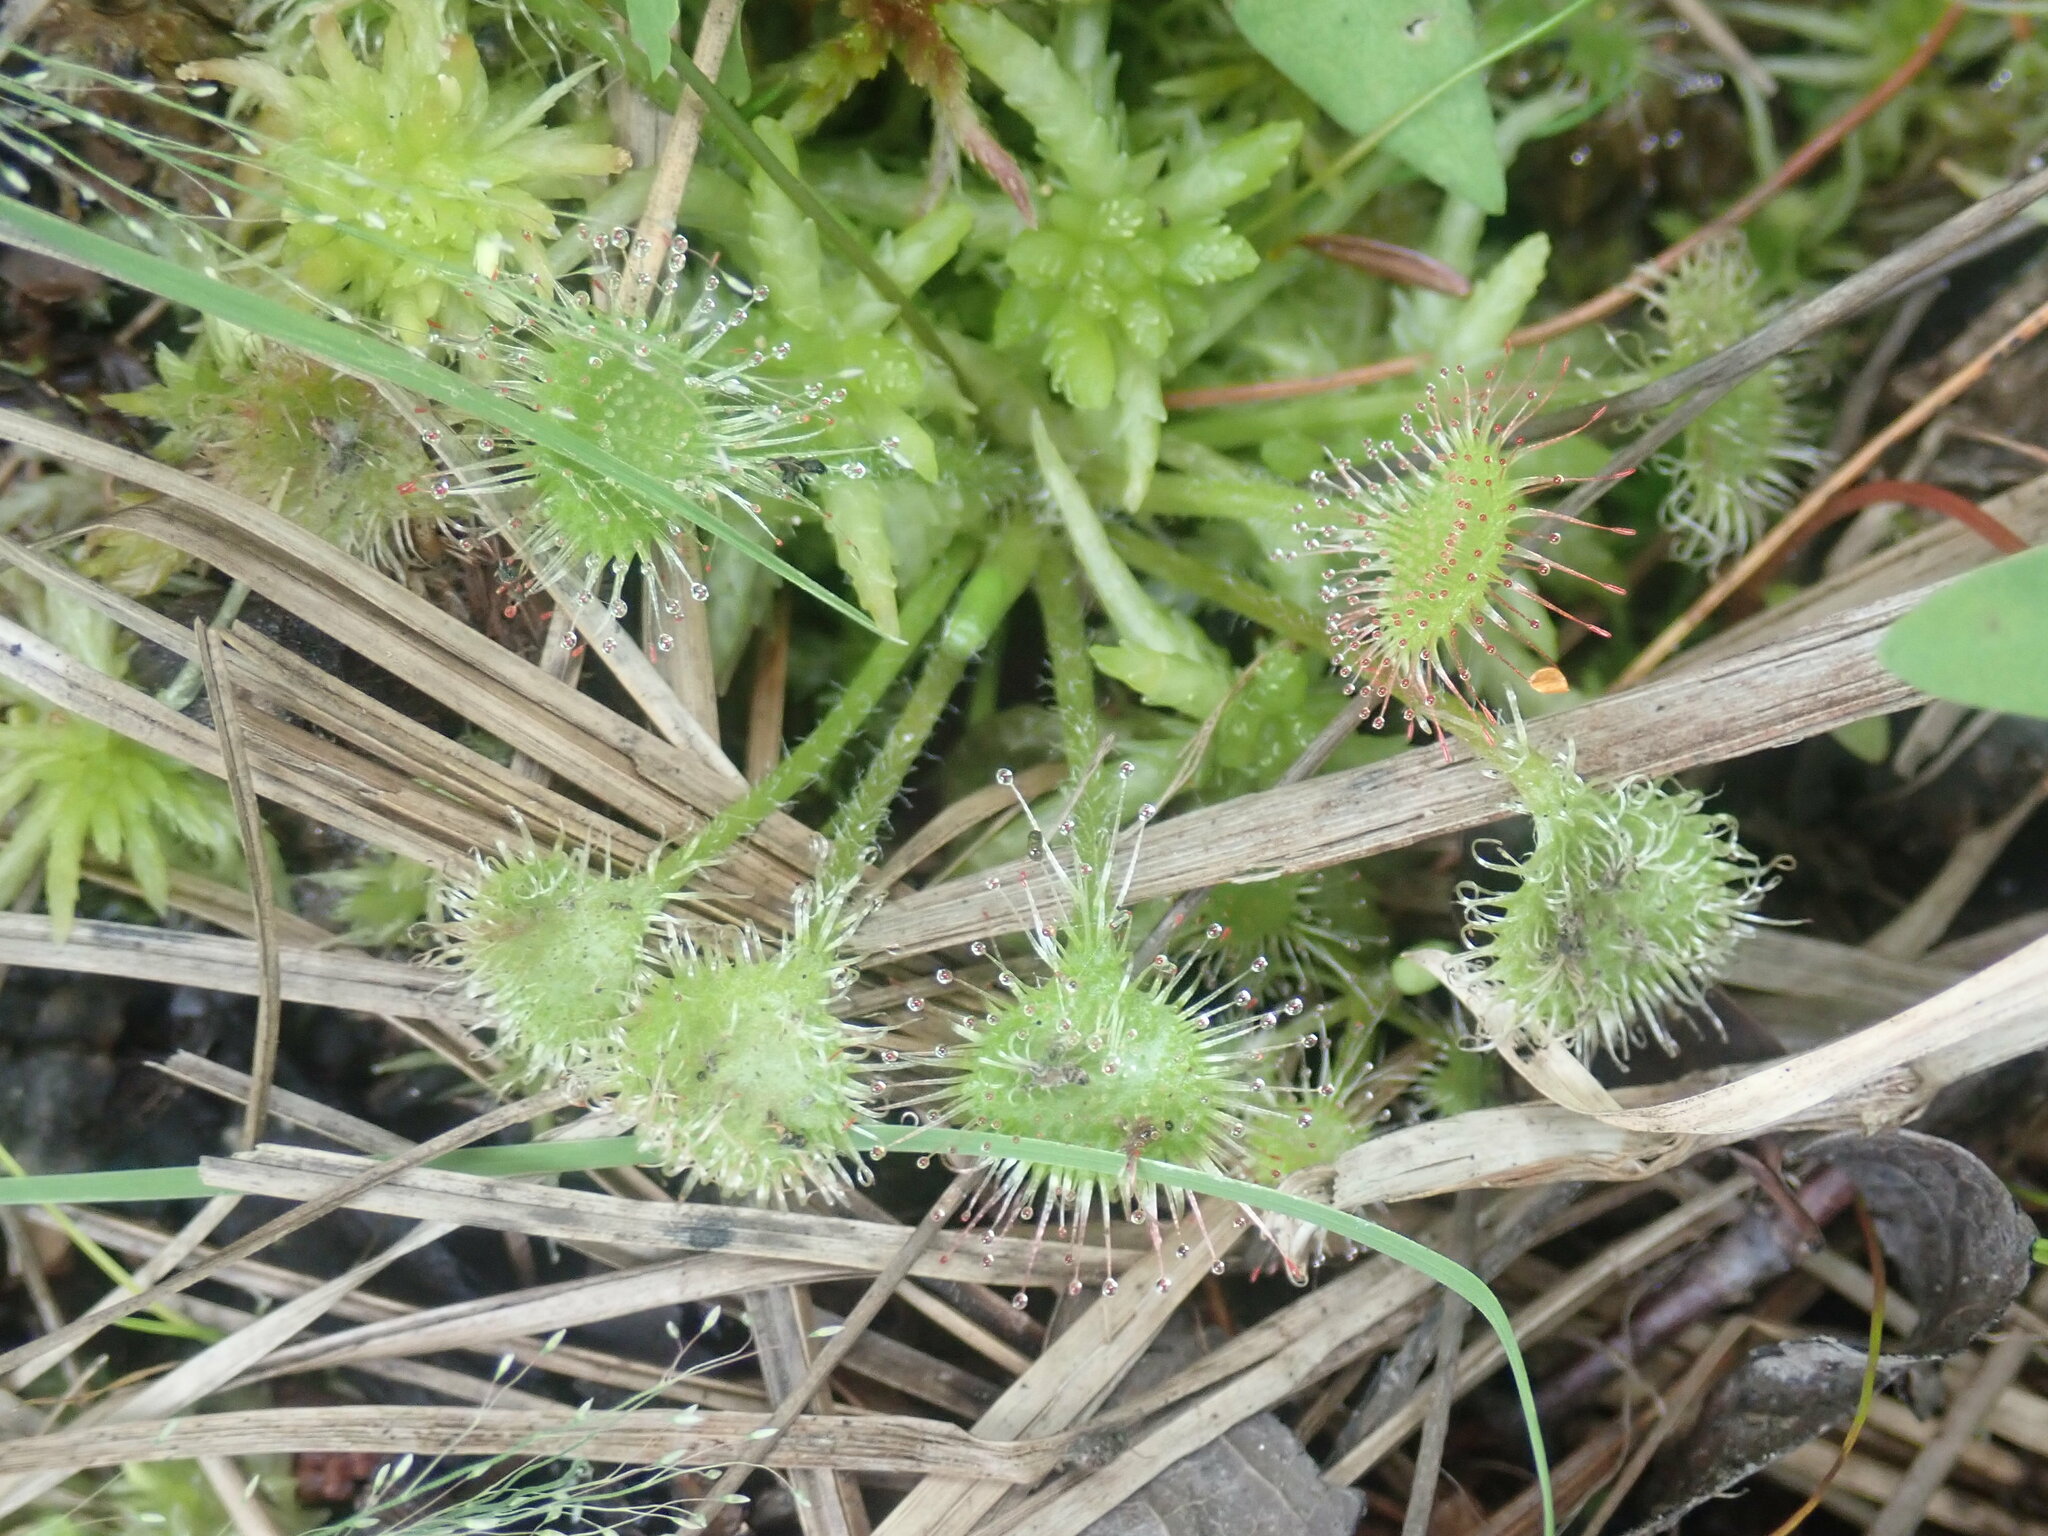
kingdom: Plantae
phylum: Tracheophyta
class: Magnoliopsida
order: Caryophyllales
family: Droseraceae
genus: Drosera
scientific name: Drosera rotundifolia
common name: Round-leaved sundew
